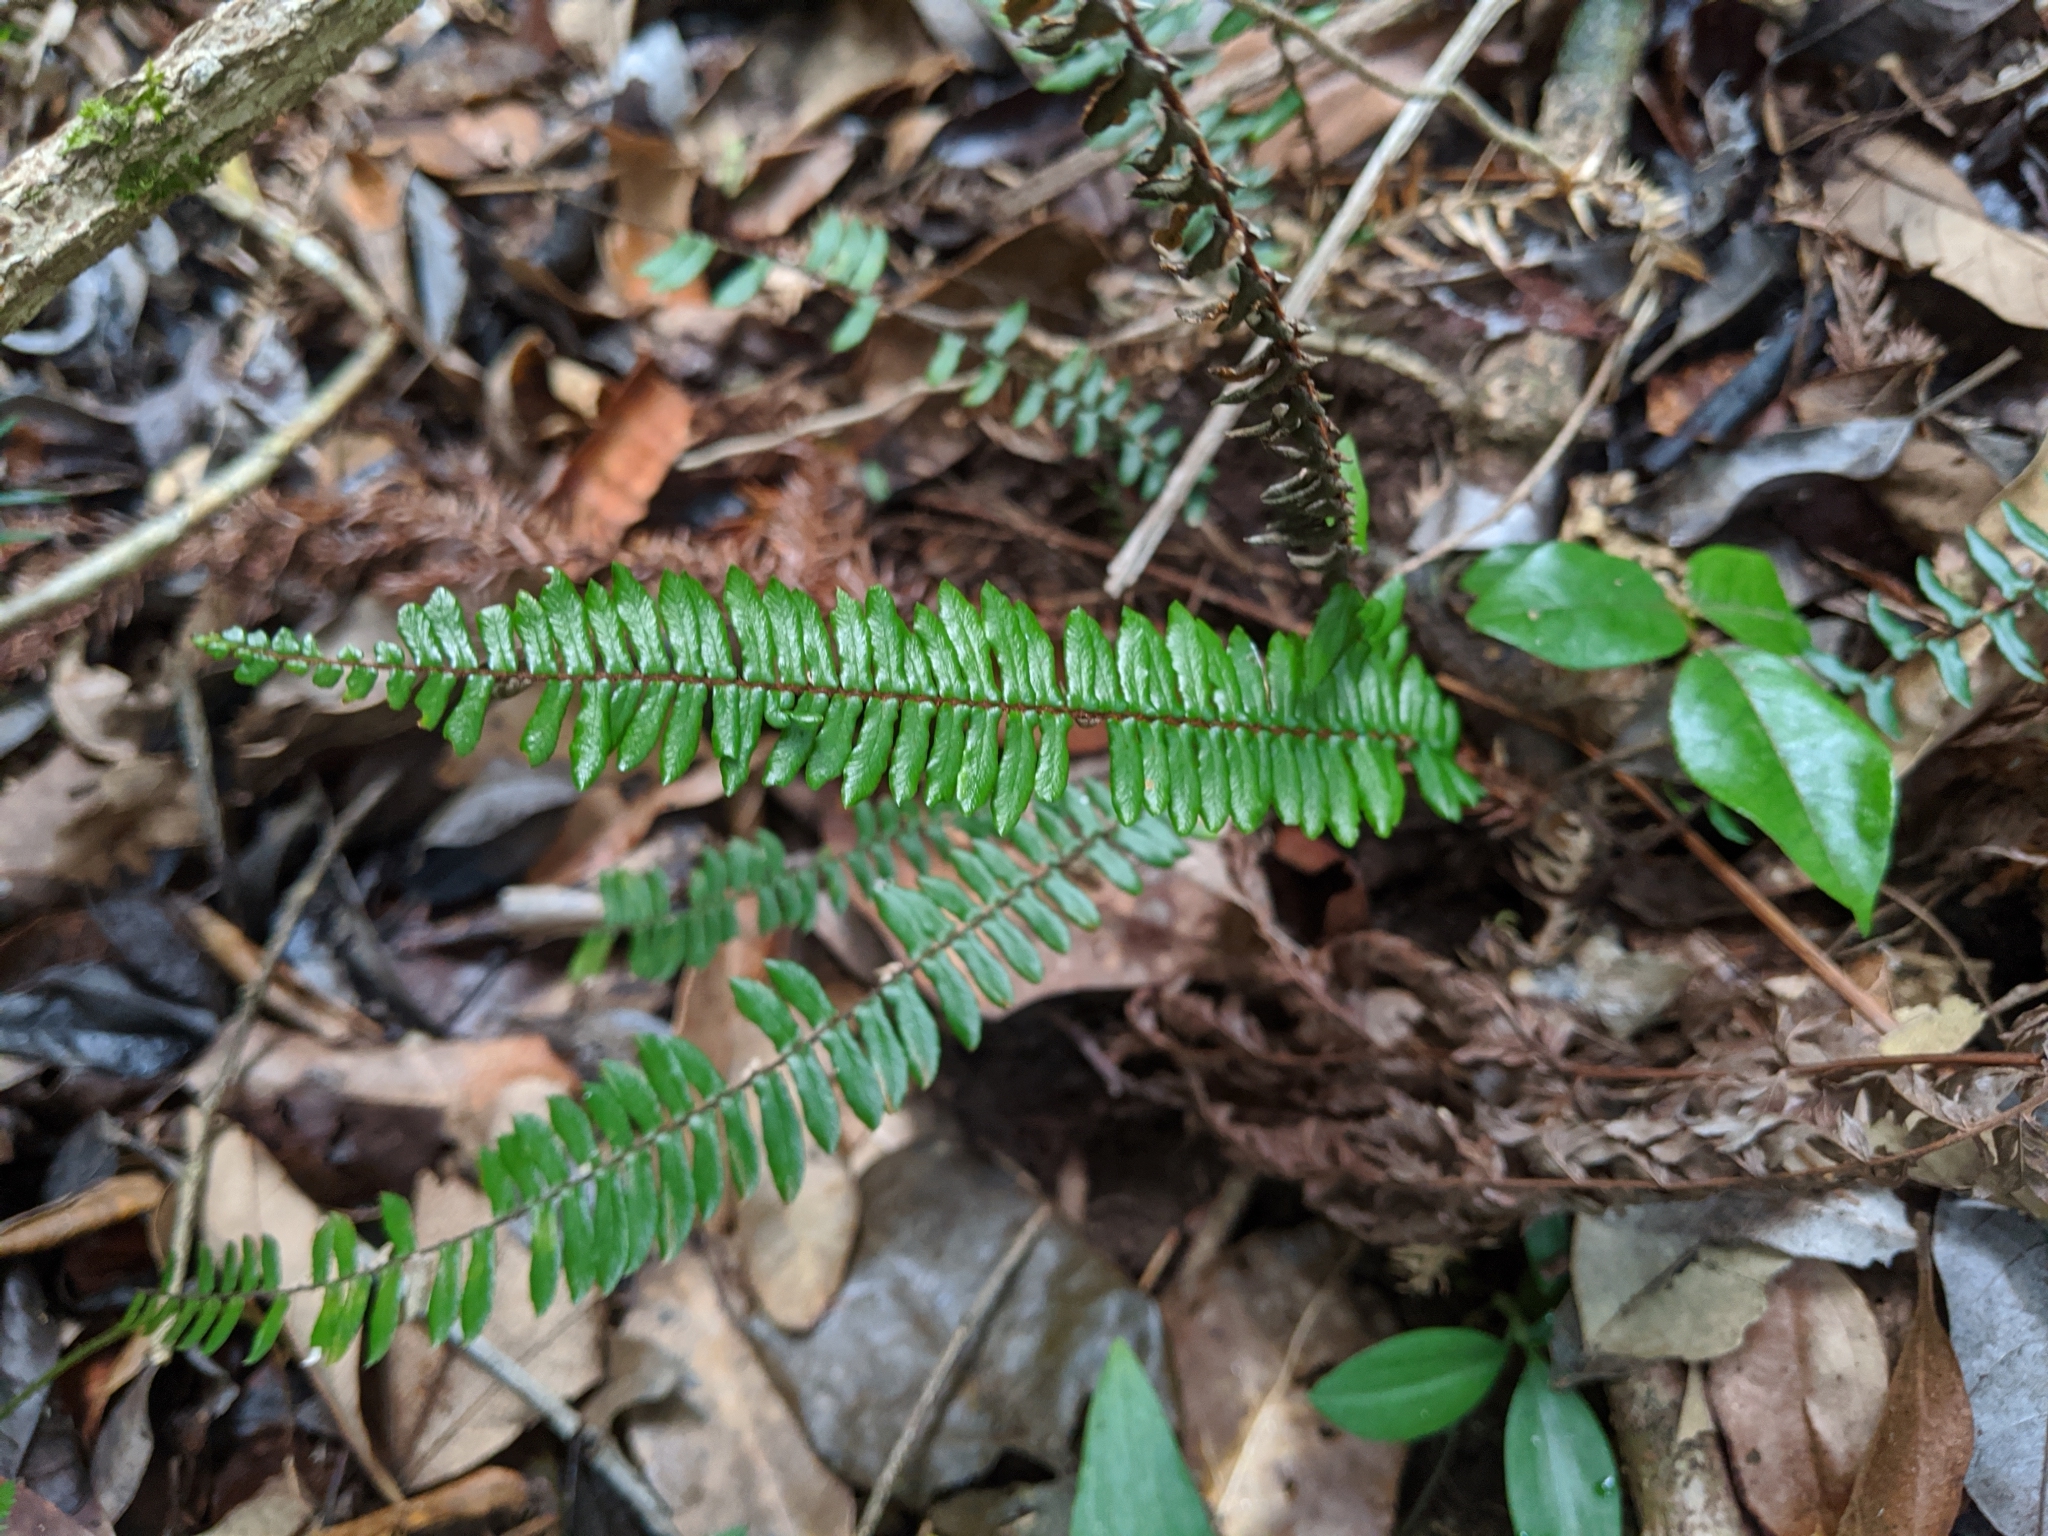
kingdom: Plantae
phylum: Tracheophyta
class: Polypodiopsida
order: Polypodiales
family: Pteridaceae
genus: Pellaea
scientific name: Pellaea nana
